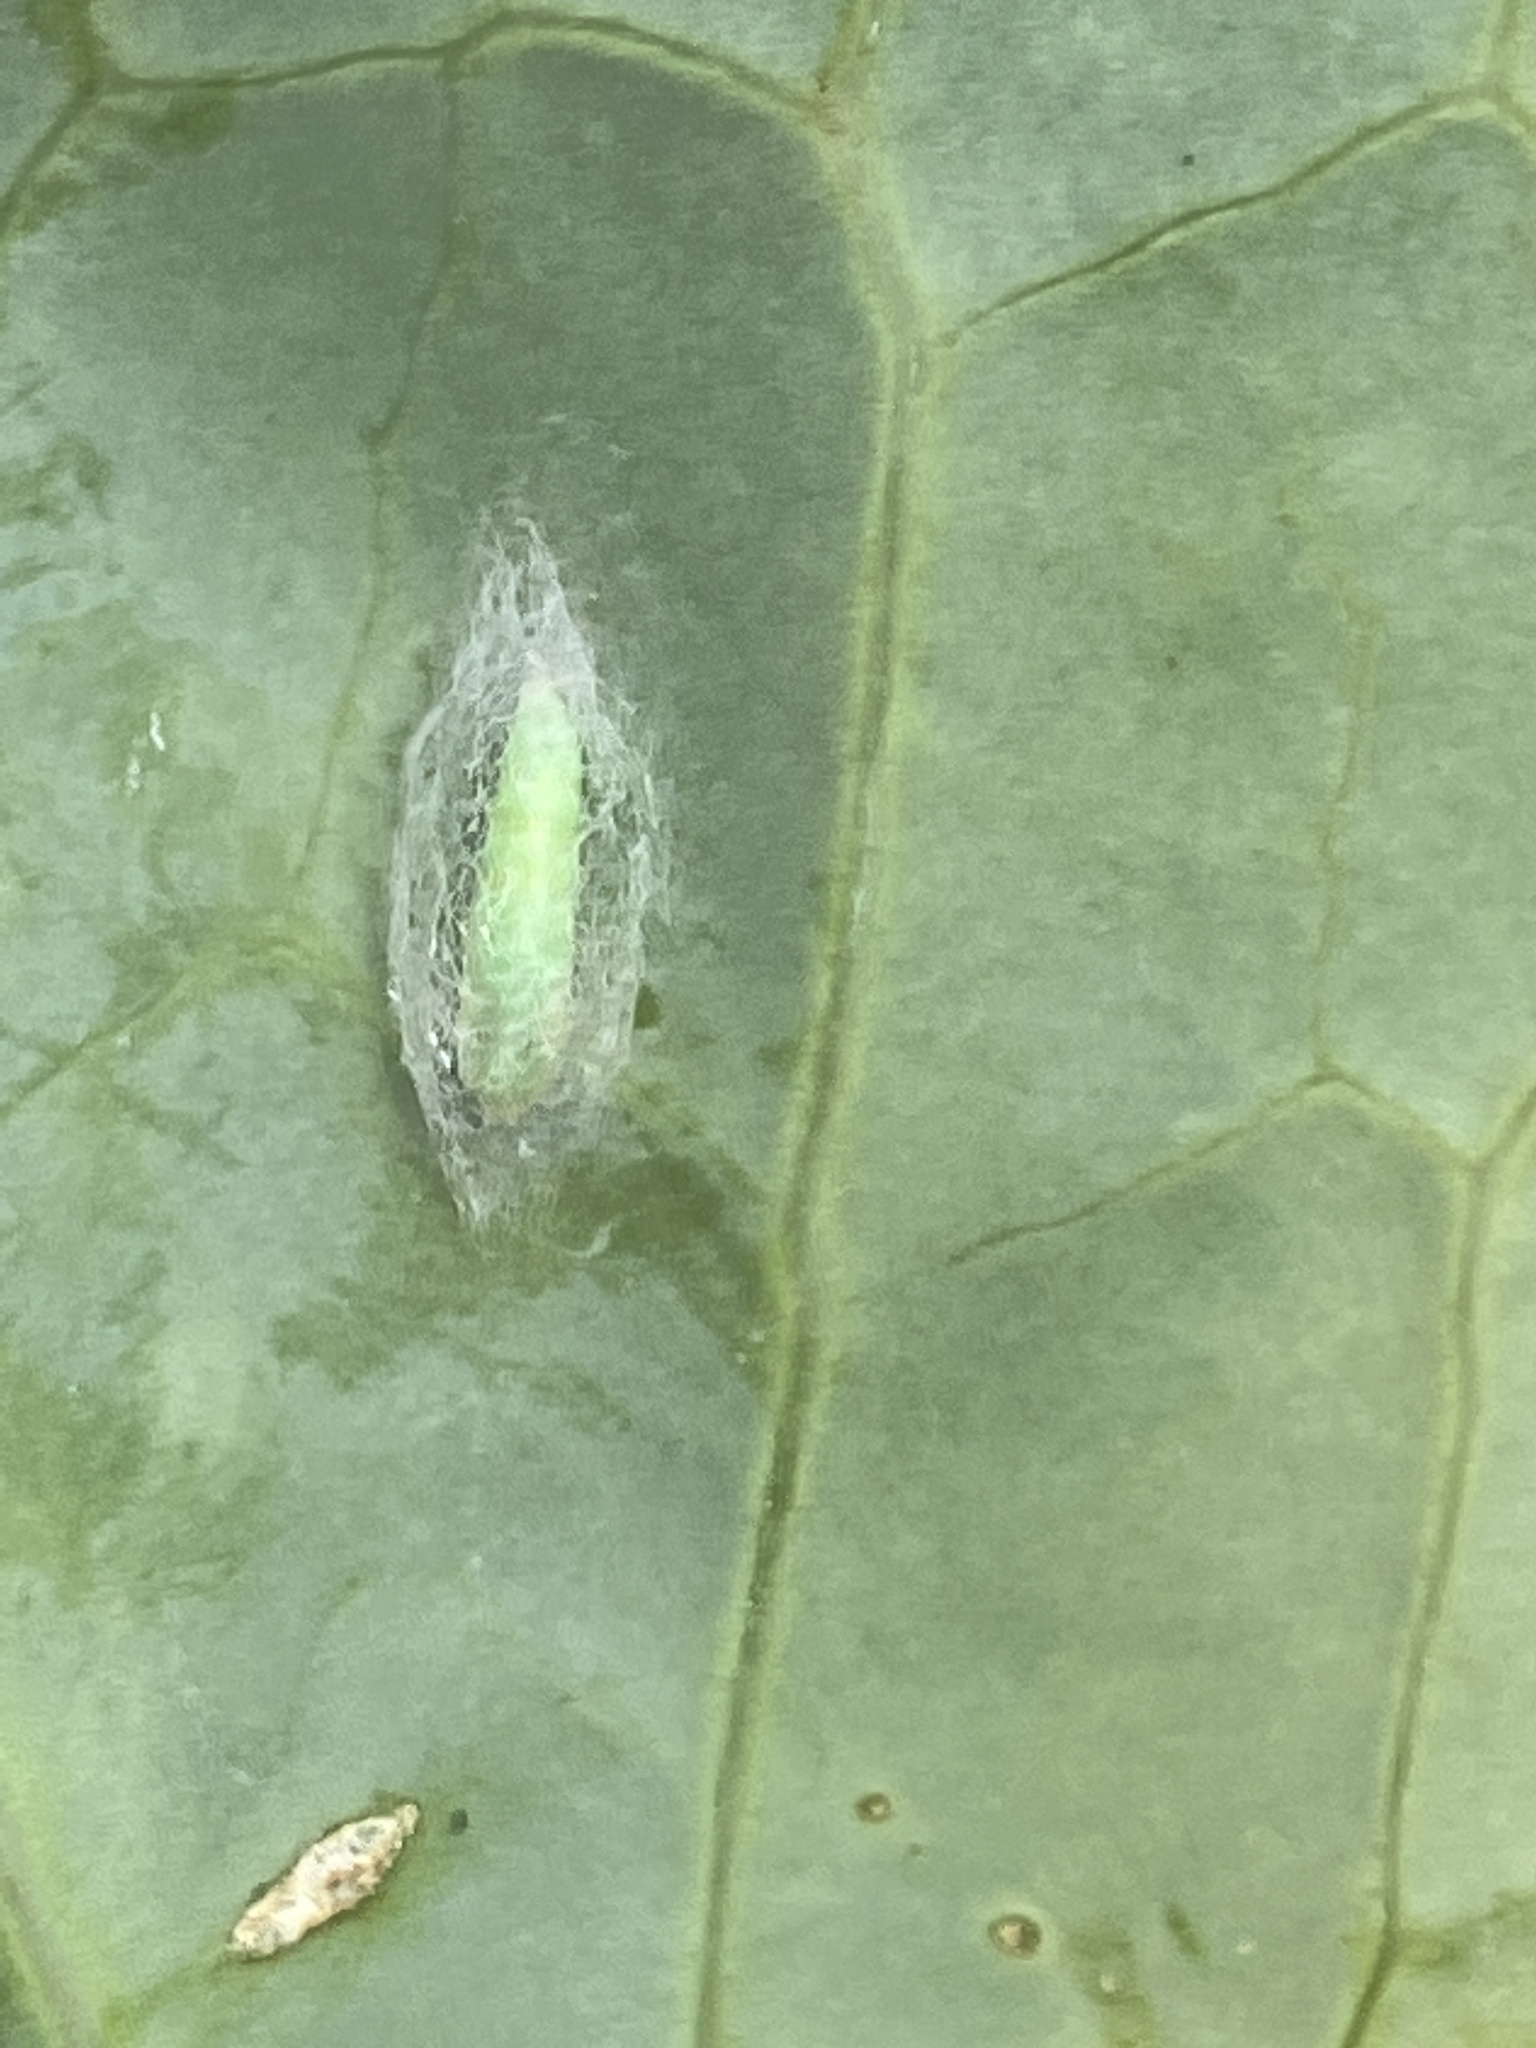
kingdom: Animalia
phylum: Arthropoda
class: Insecta
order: Lepidoptera
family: Plutellidae
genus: Plutella
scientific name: Plutella xylostella
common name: Diamond-back moth
